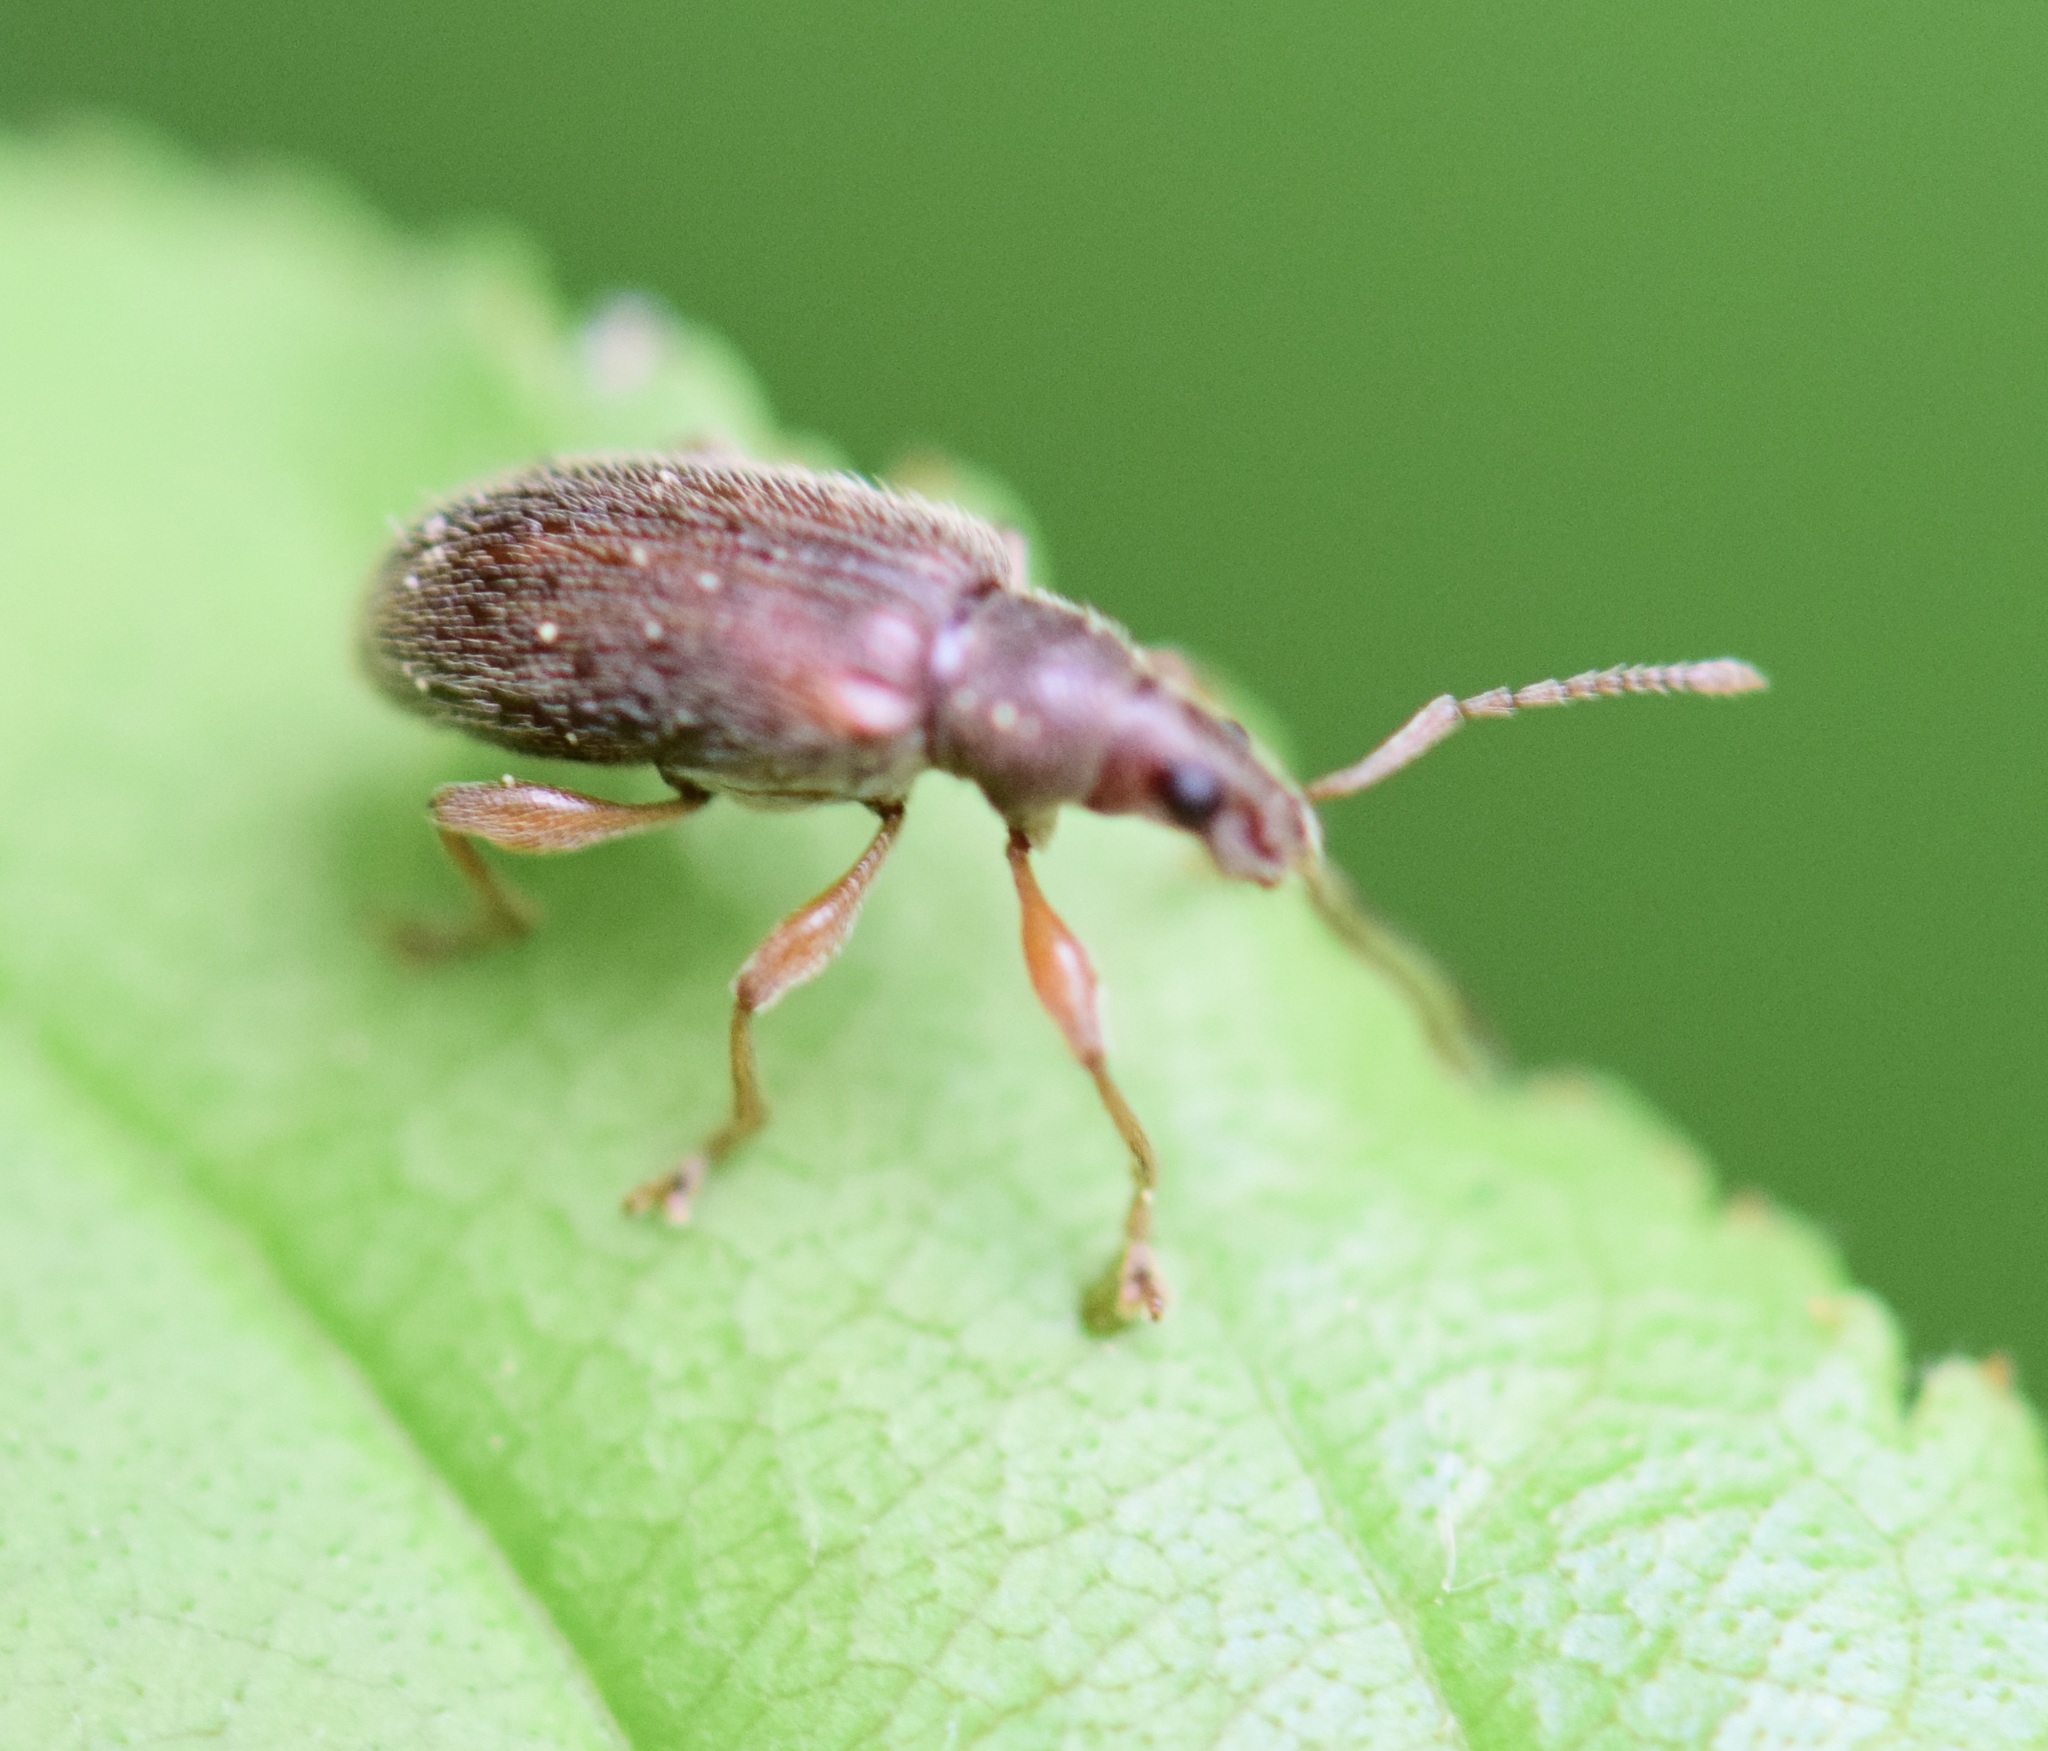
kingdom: Animalia
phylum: Arthropoda
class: Insecta
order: Coleoptera
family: Curculionidae
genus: Phyllobius
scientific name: Phyllobius oblongus
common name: Brown leaf weevil
